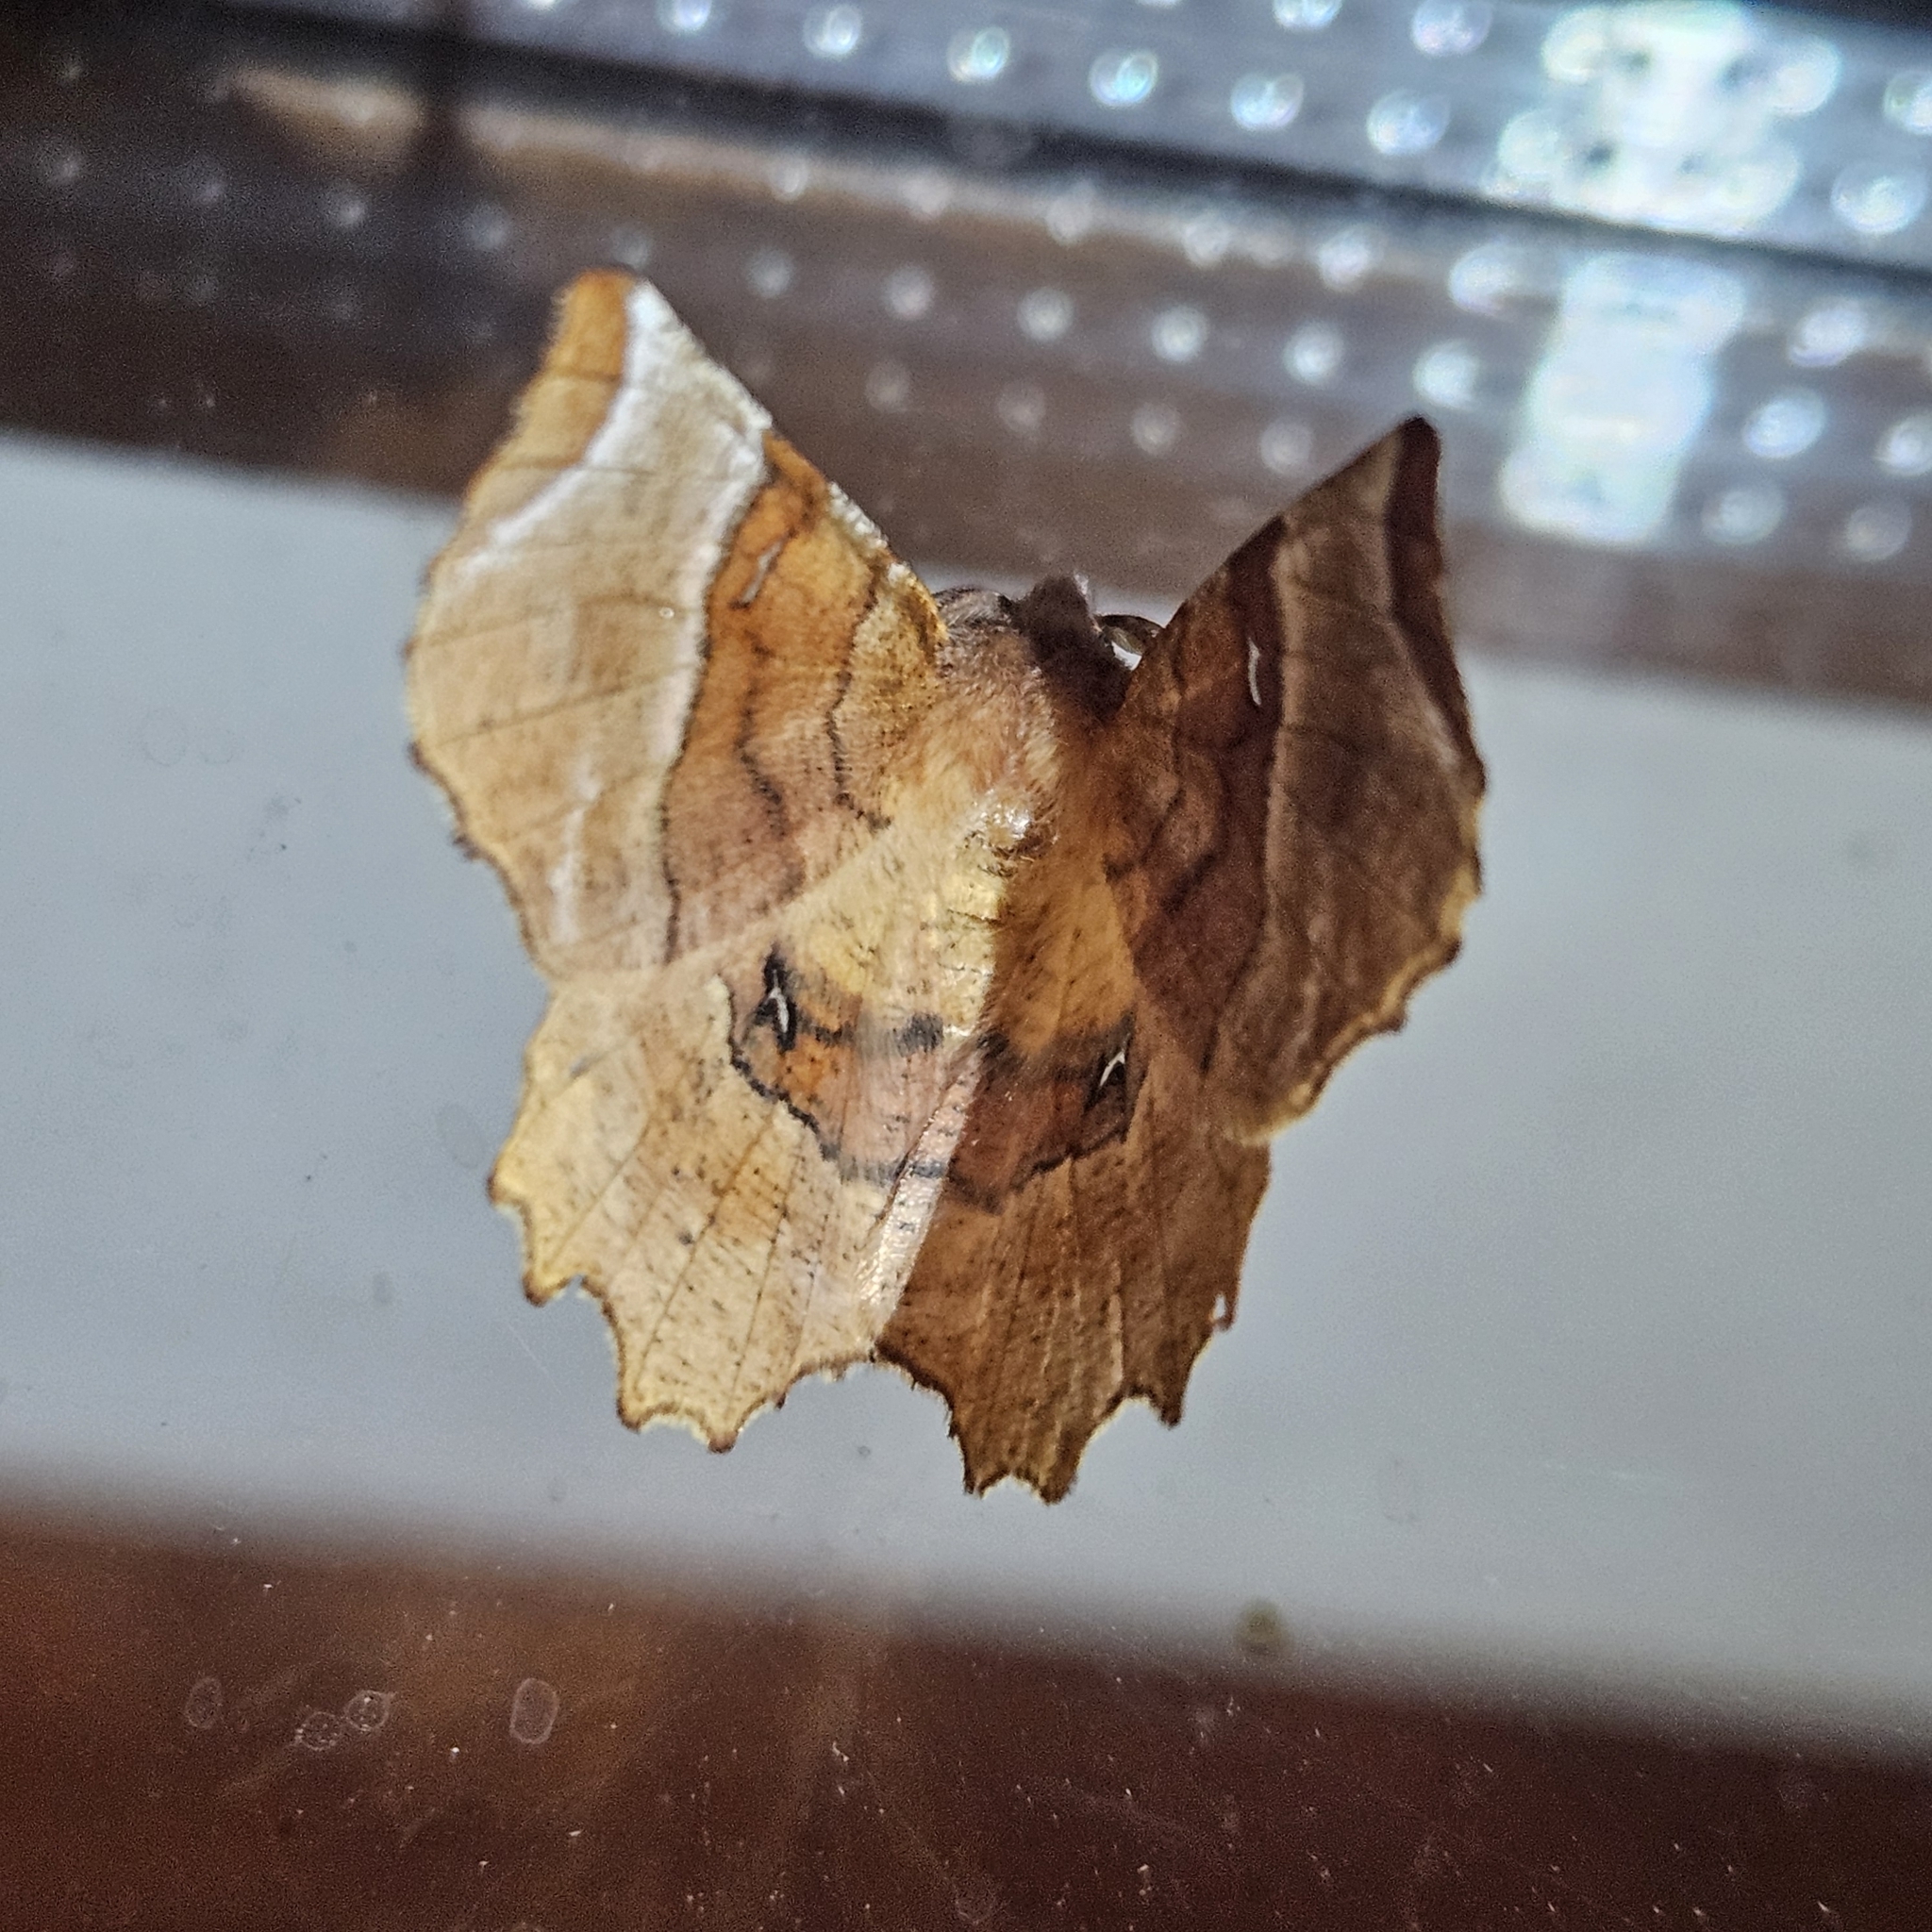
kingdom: Animalia
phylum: Arthropoda
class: Insecta
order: Lepidoptera
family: Geometridae
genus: Selenia
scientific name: Selenia lunularia
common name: Lunar thorn
